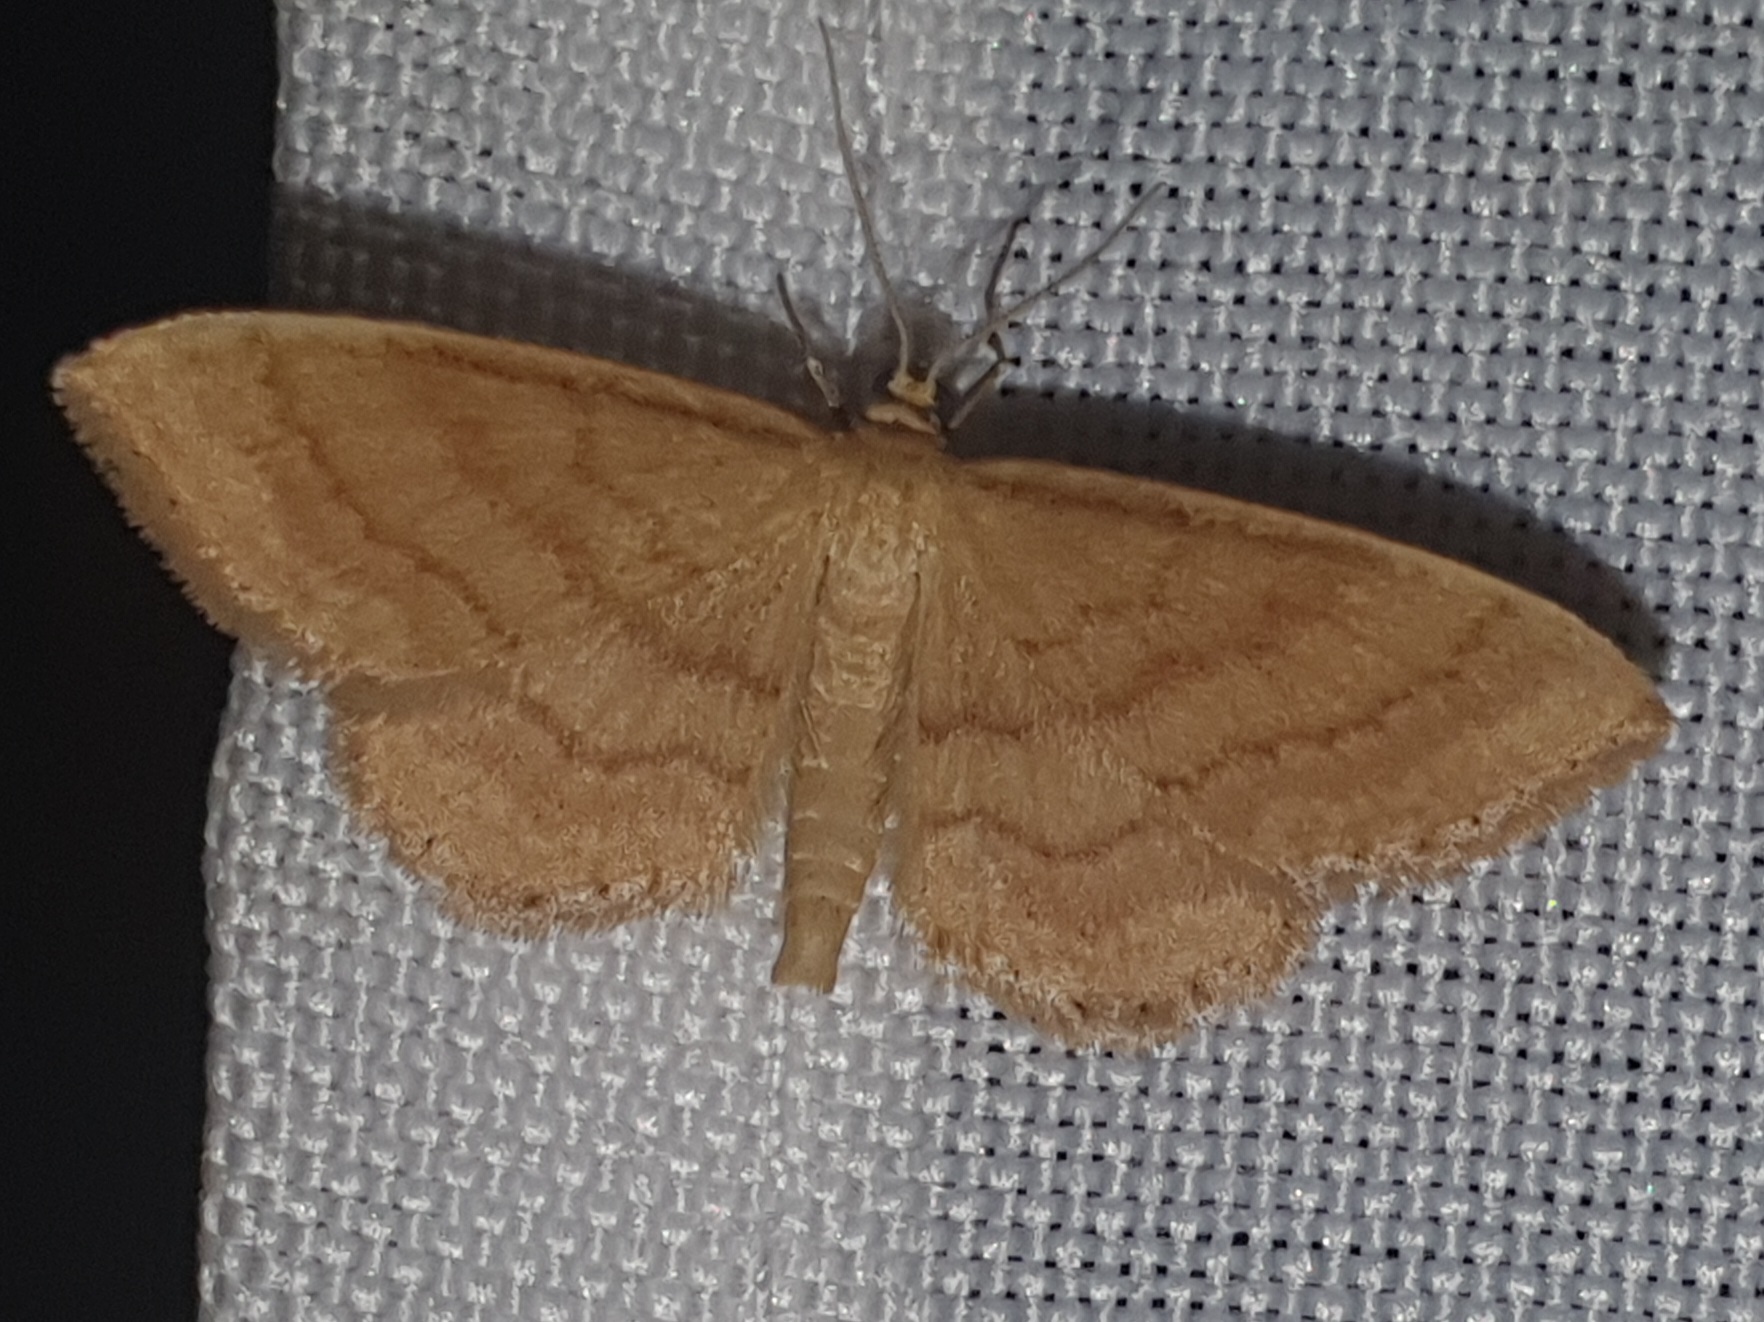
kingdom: Animalia
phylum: Arthropoda
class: Insecta
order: Lepidoptera
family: Geometridae
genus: Idaea
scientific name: Idaea ochrata
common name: Bright wave
